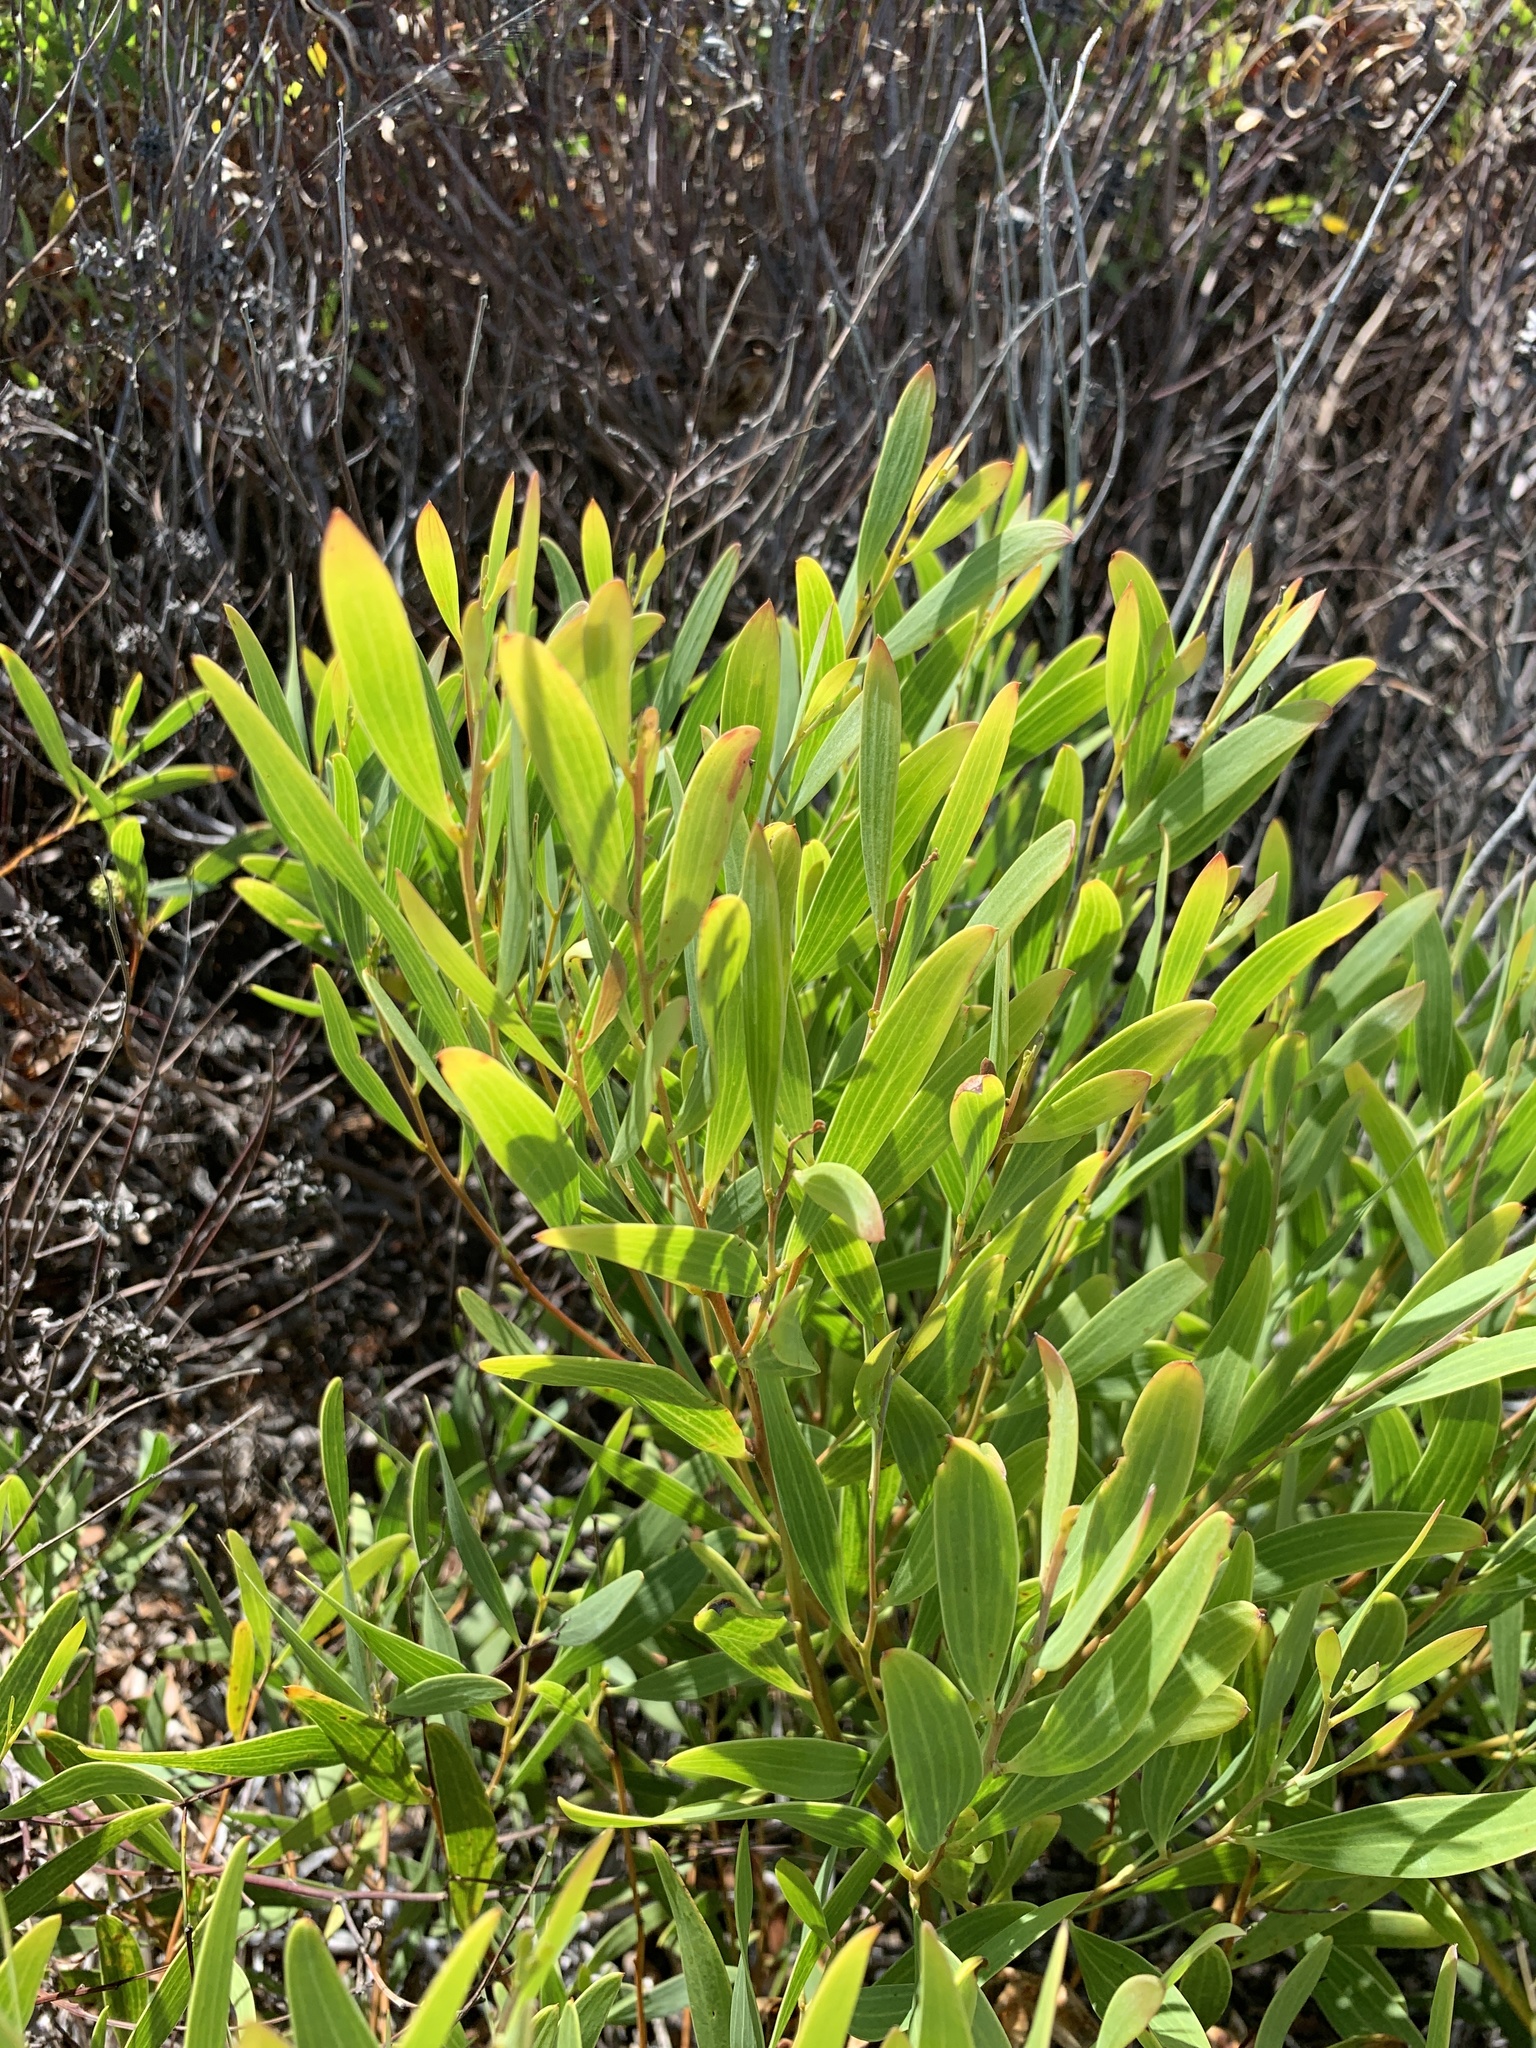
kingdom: Plantae
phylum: Tracheophyta
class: Magnoliopsida
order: Fabales
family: Fabaceae
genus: Acacia
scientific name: Acacia cyclops
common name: Coastal wattle
